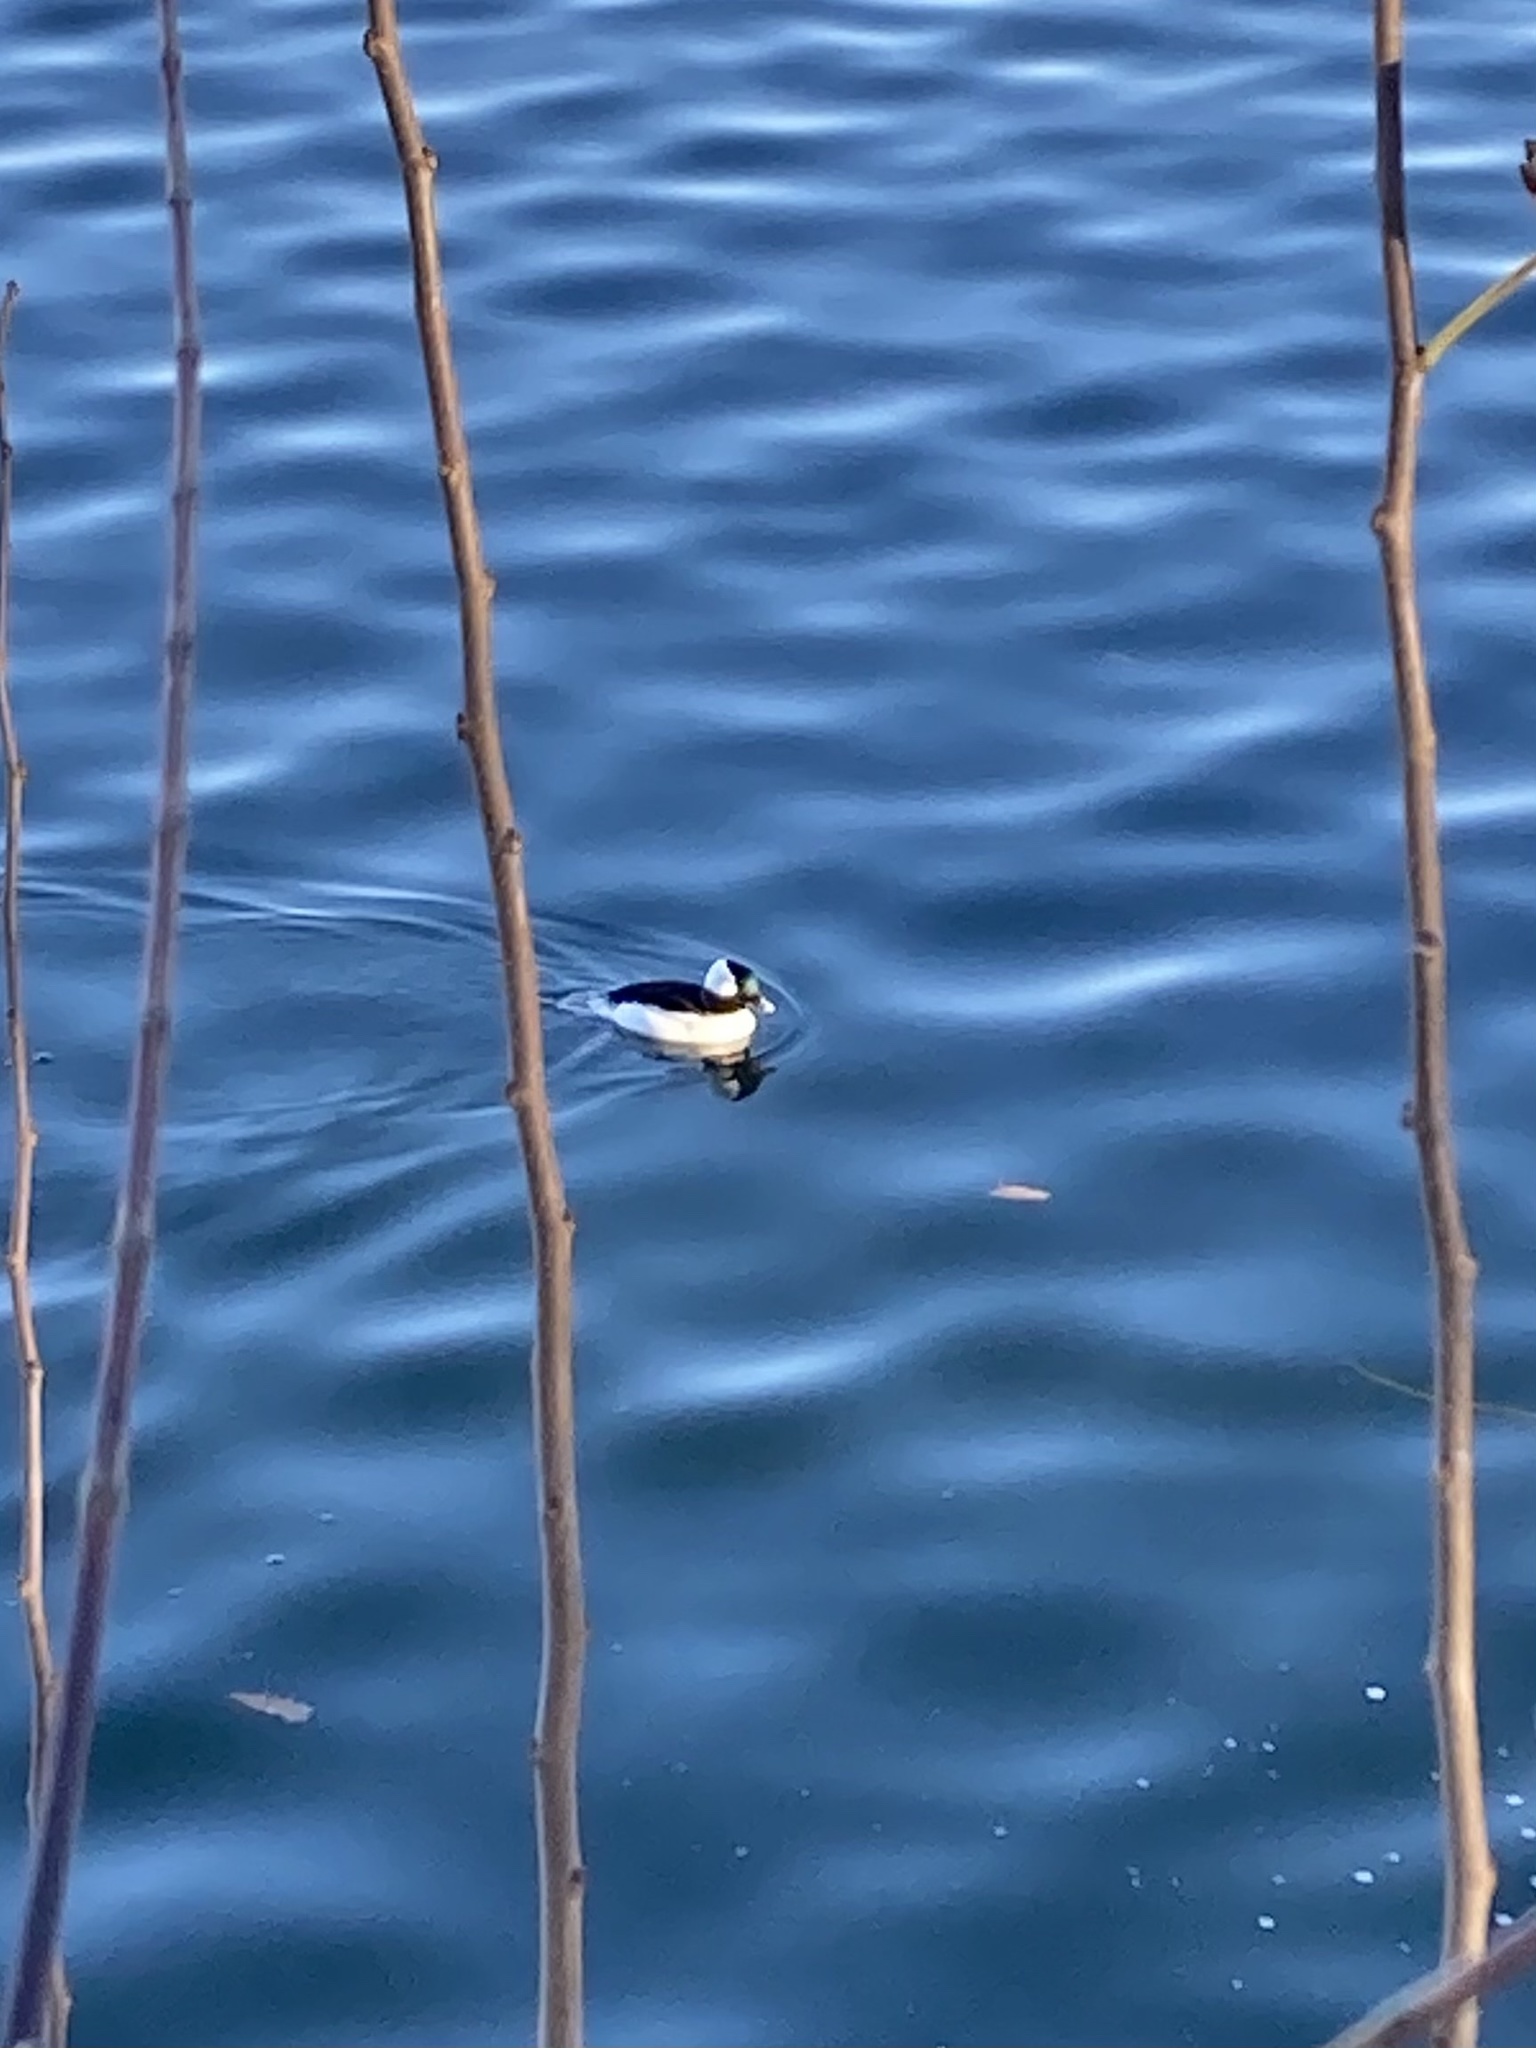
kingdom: Animalia
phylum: Chordata
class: Aves
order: Anseriformes
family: Anatidae
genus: Bucephala
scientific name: Bucephala albeola
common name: Bufflehead
